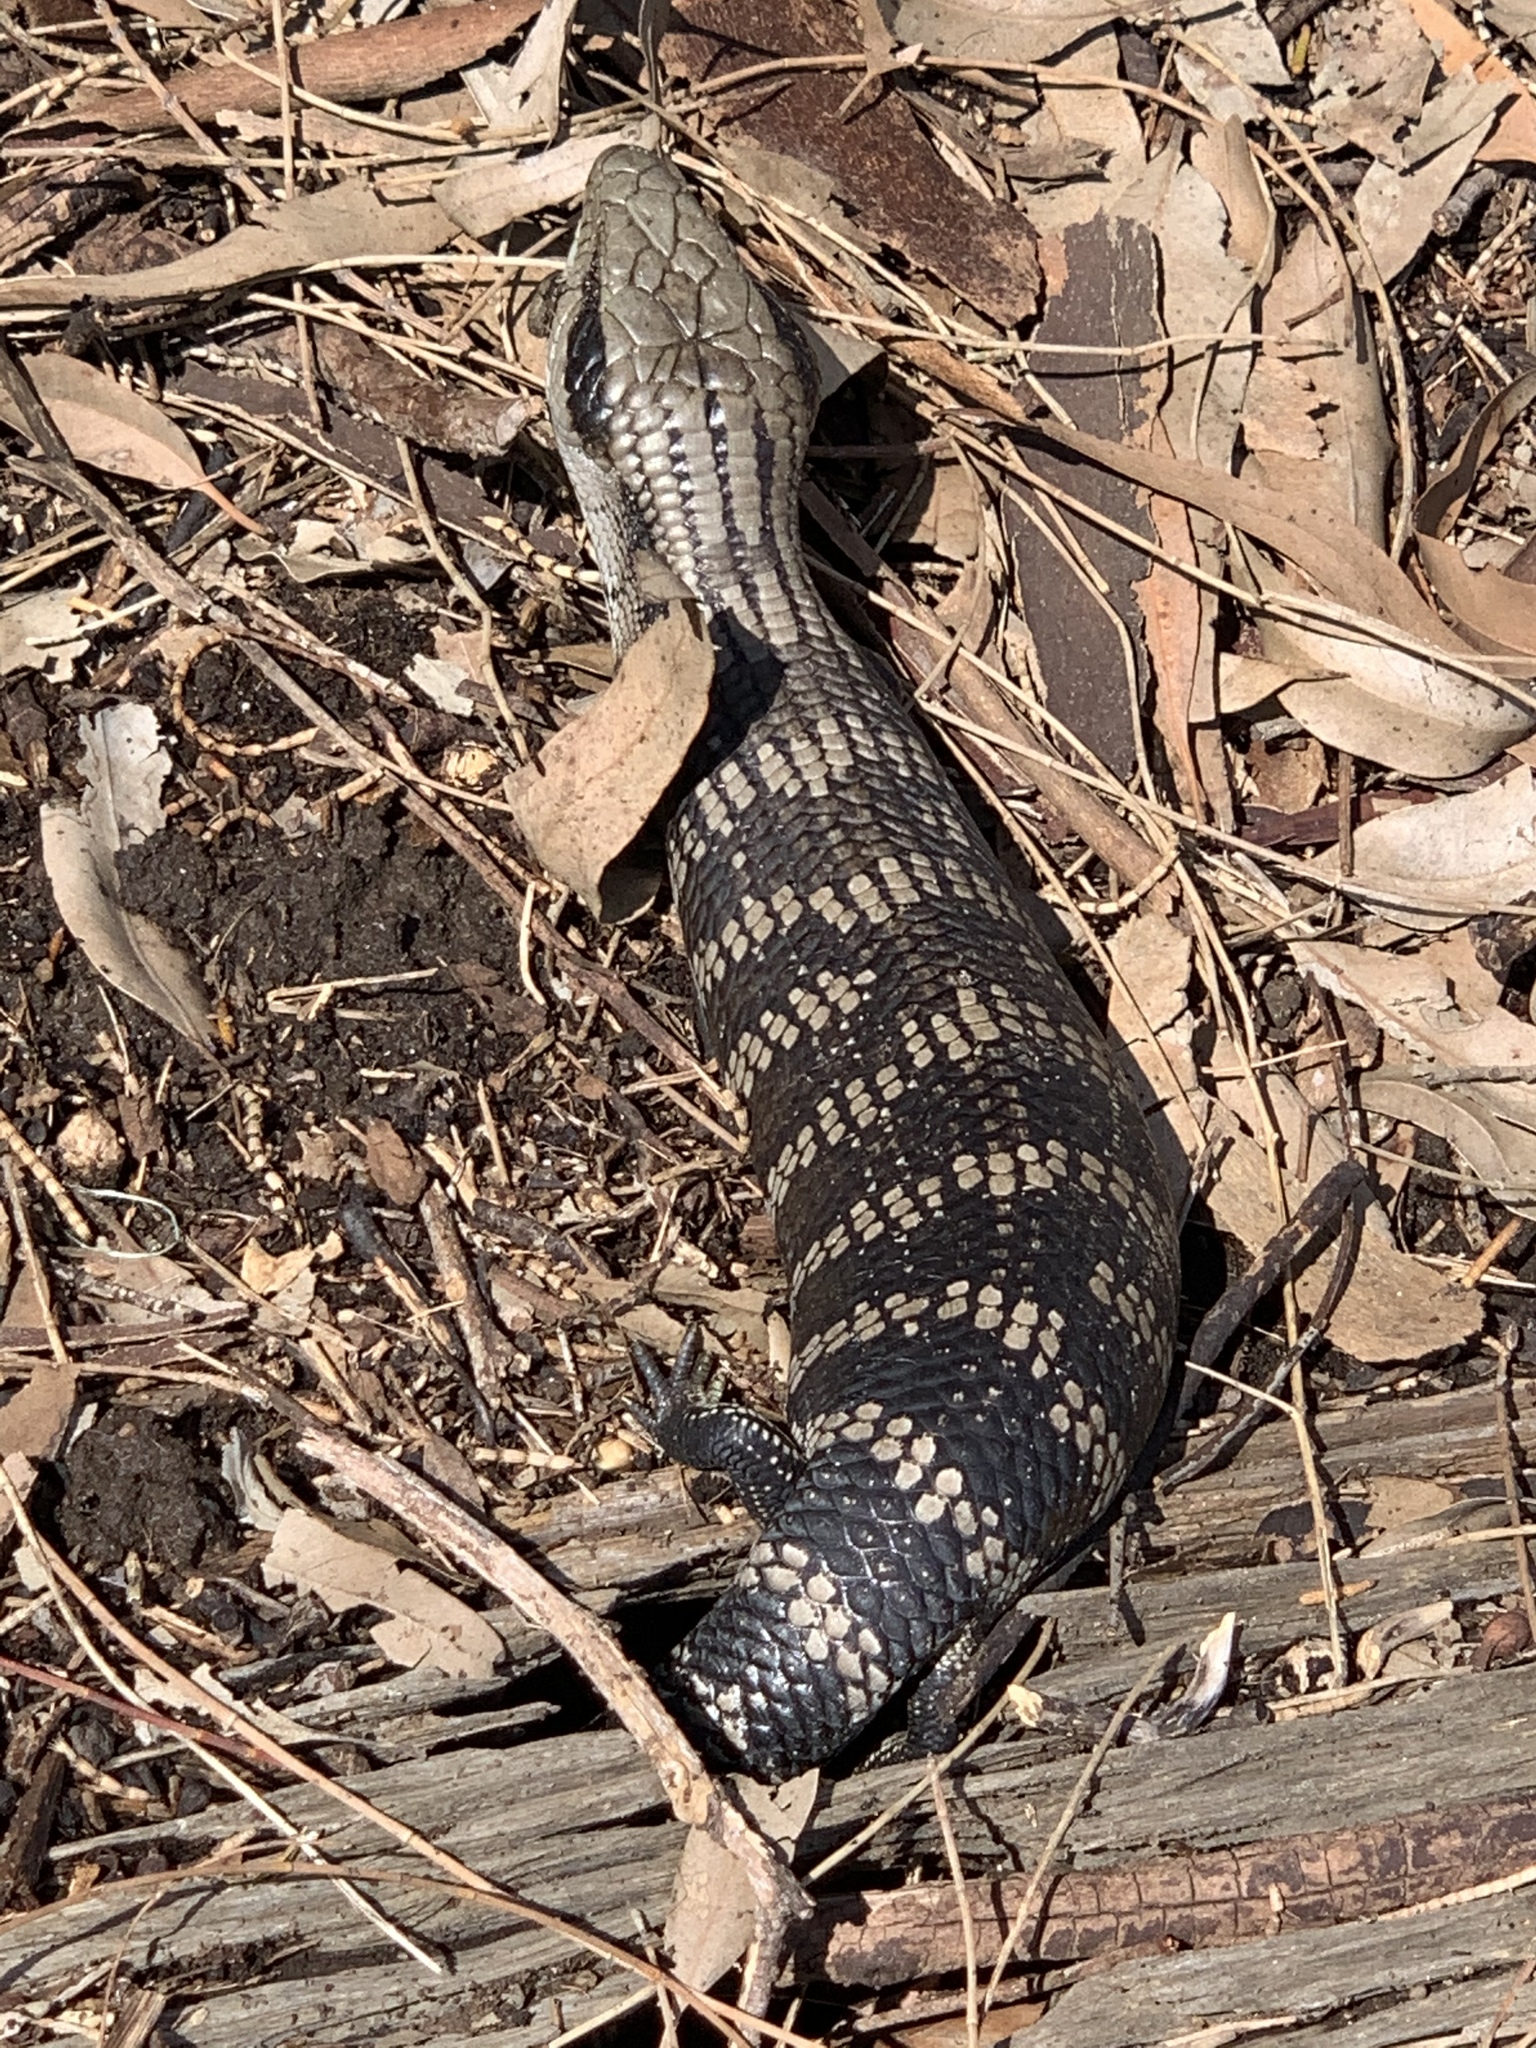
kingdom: Animalia
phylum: Chordata
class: Squamata
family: Scincidae
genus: Tiliqua
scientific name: Tiliqua scincoides
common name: Common bluetongue
